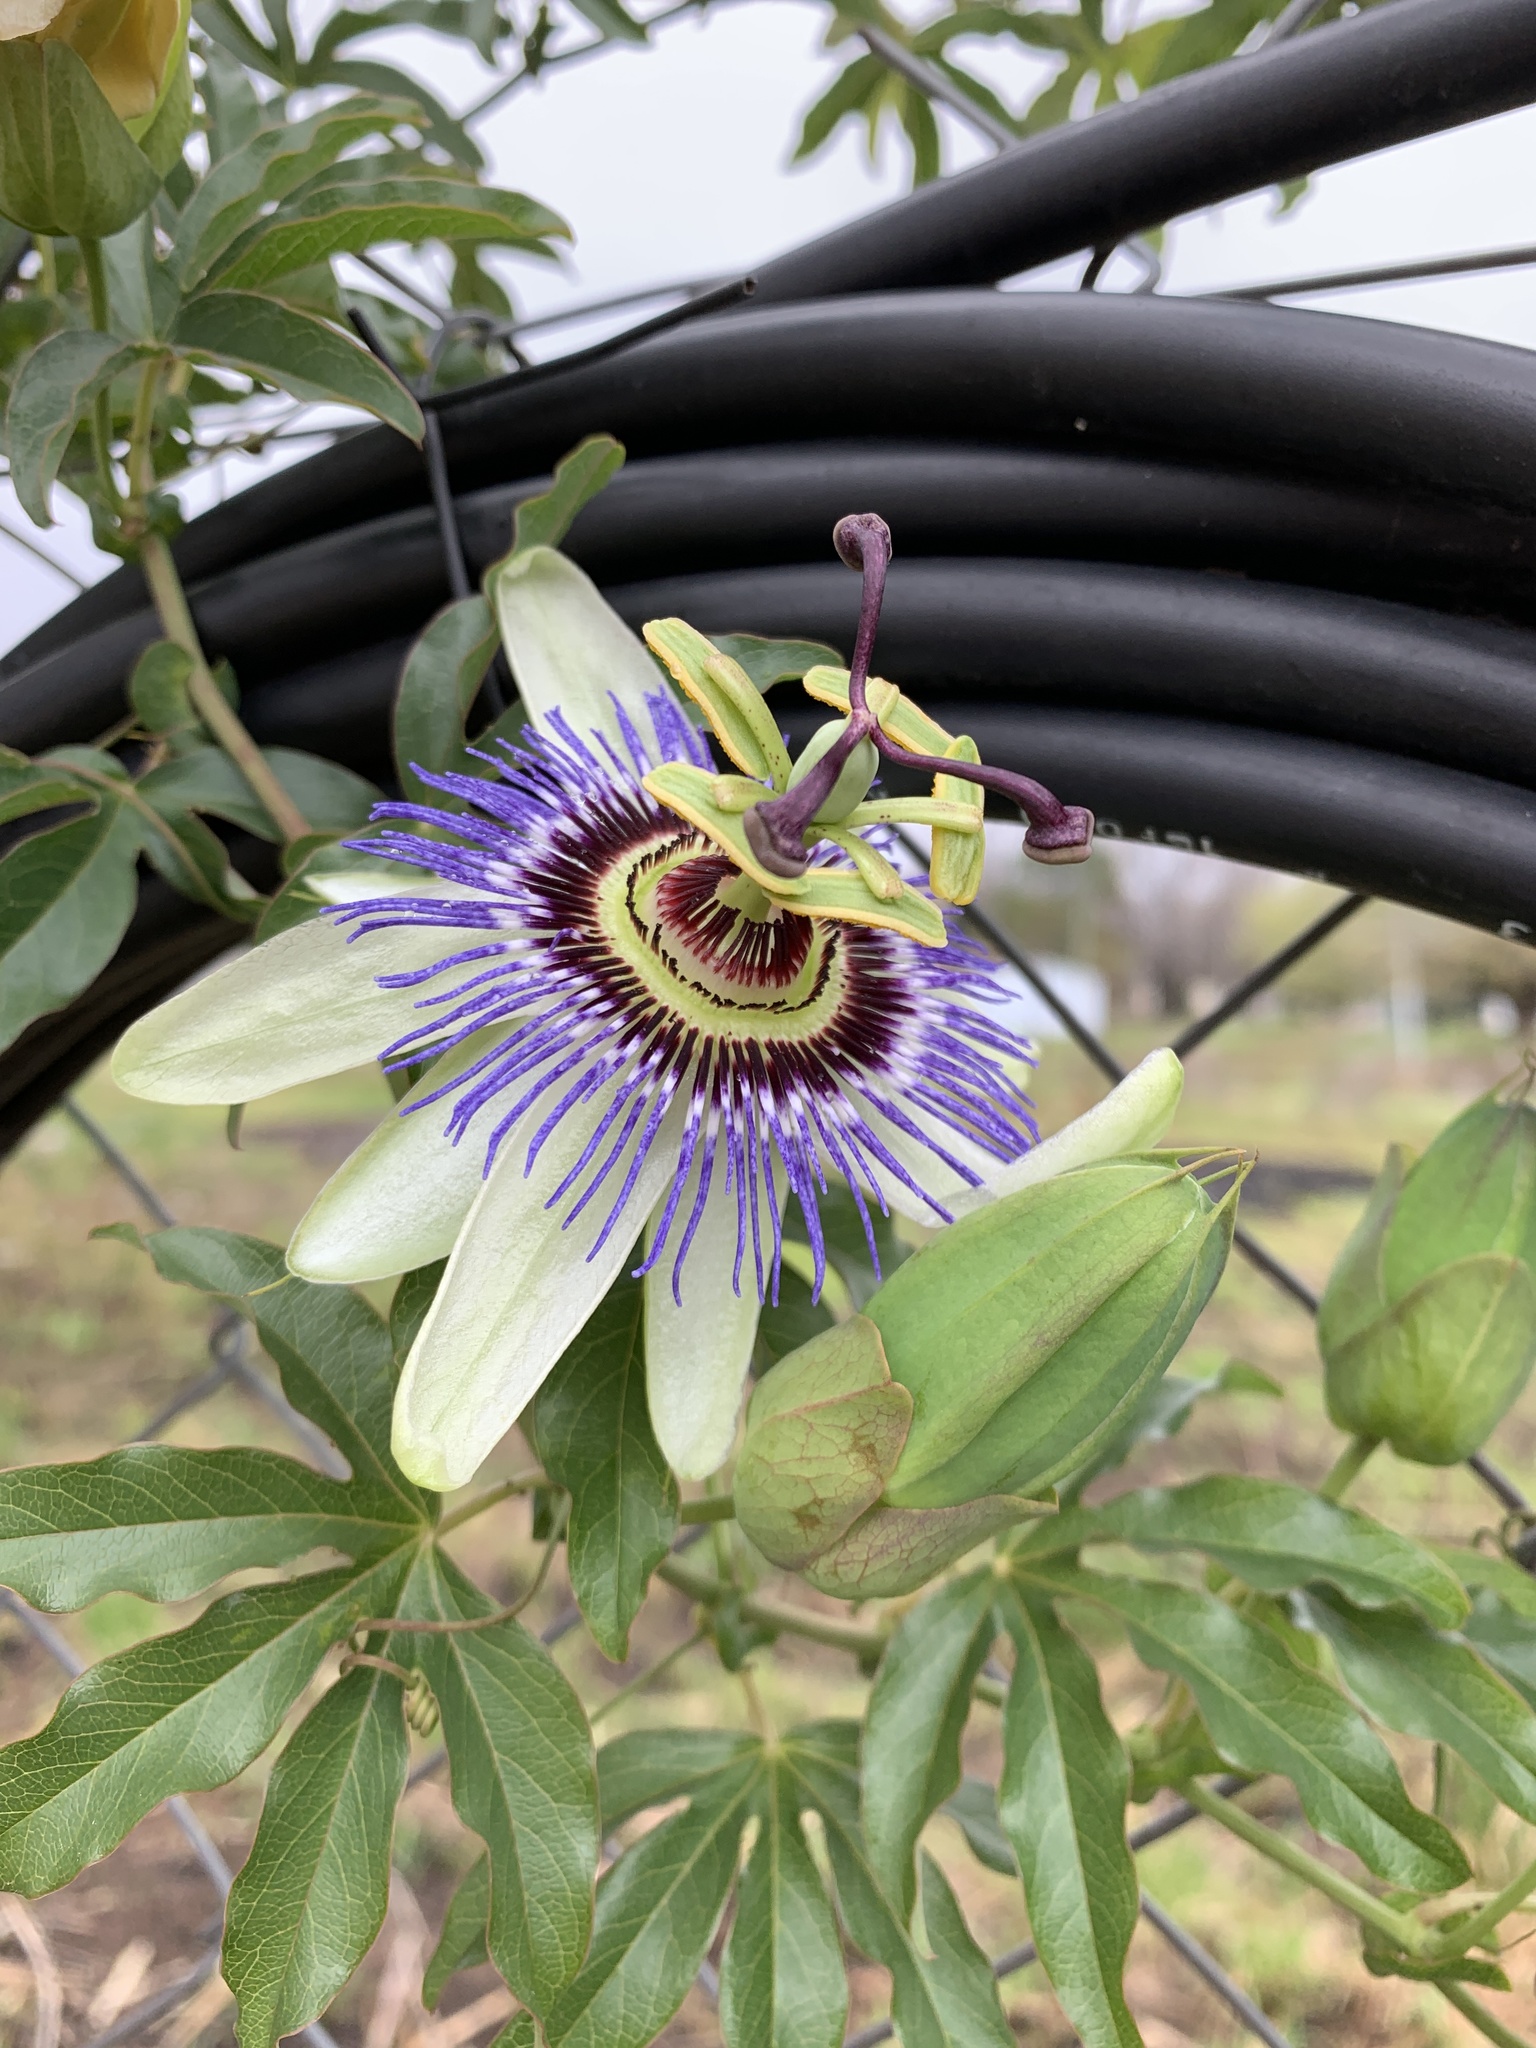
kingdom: Plantae
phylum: Tracheophyta
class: Magnoliopsida
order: Malpighiales
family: Passifloraceae
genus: Passiflora
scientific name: Passiflora caerulea
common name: Blue passionflower
